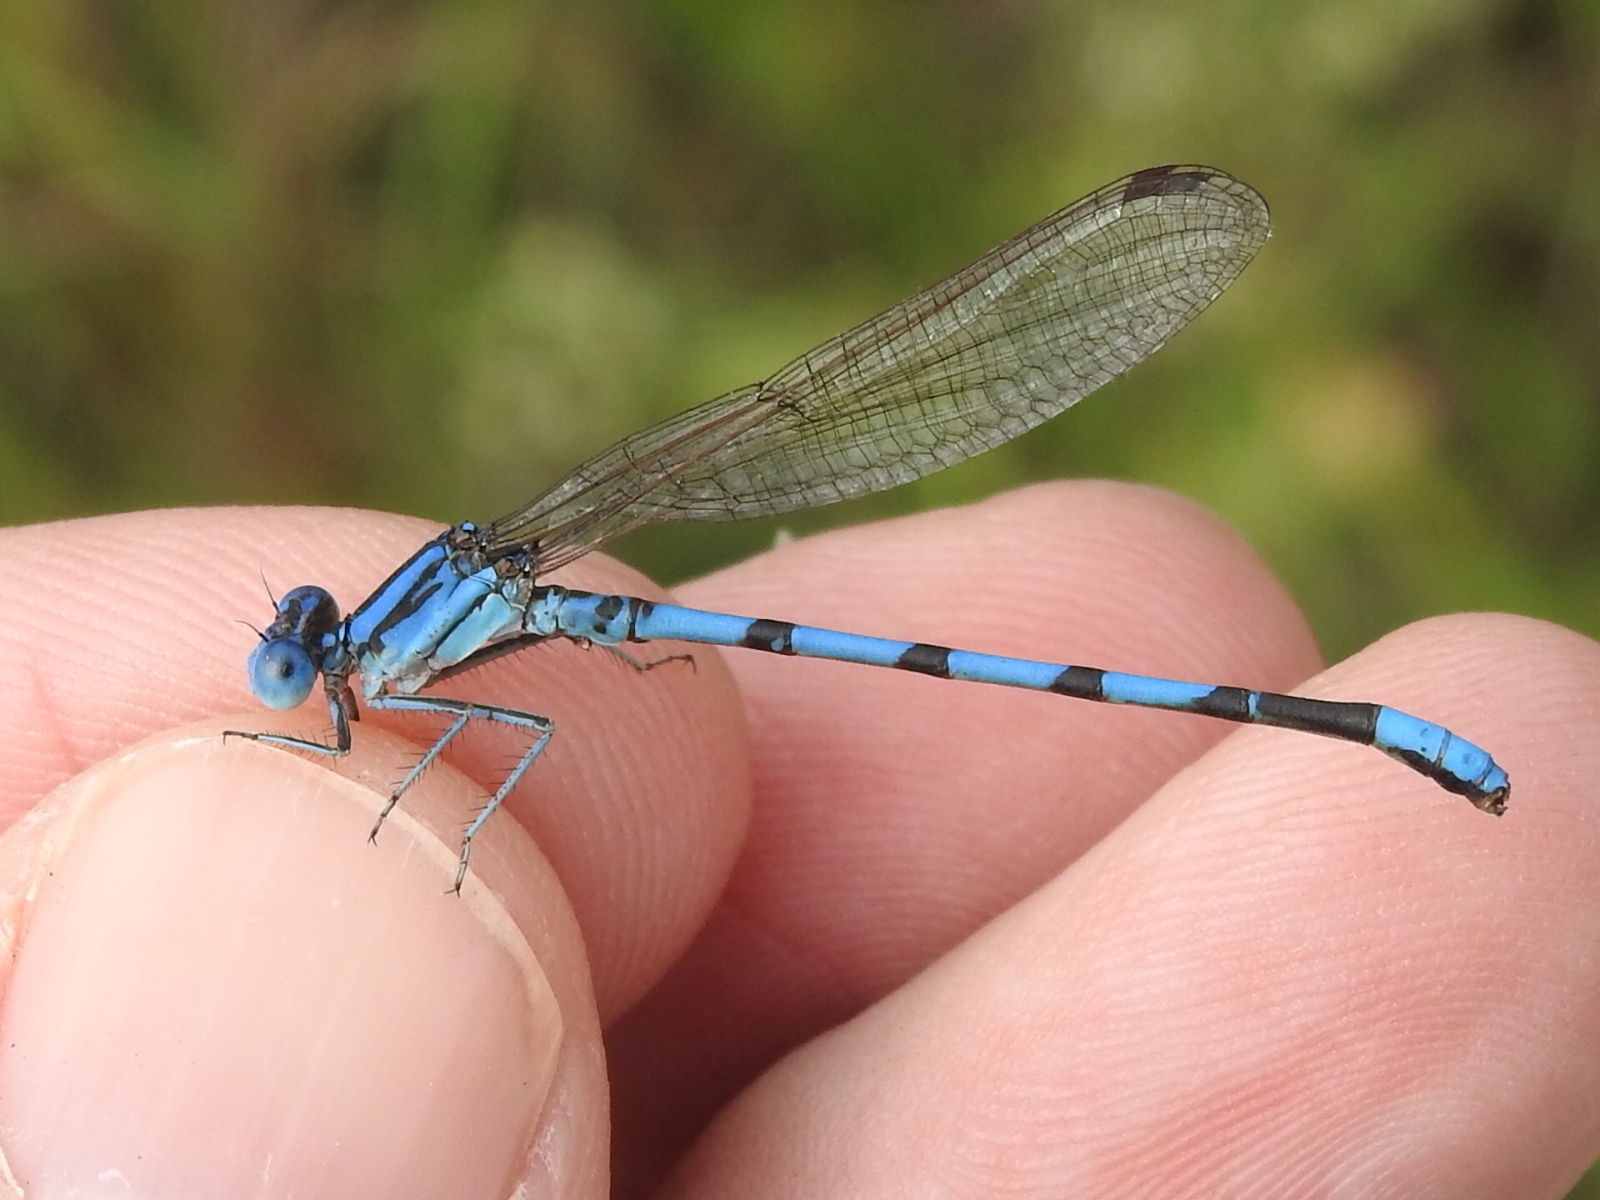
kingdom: Animalia
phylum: Arthropoda
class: Insecta
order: Odonata
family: Coenagrionidae
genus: Argia
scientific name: Argia nahuana
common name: Aztec dancer
